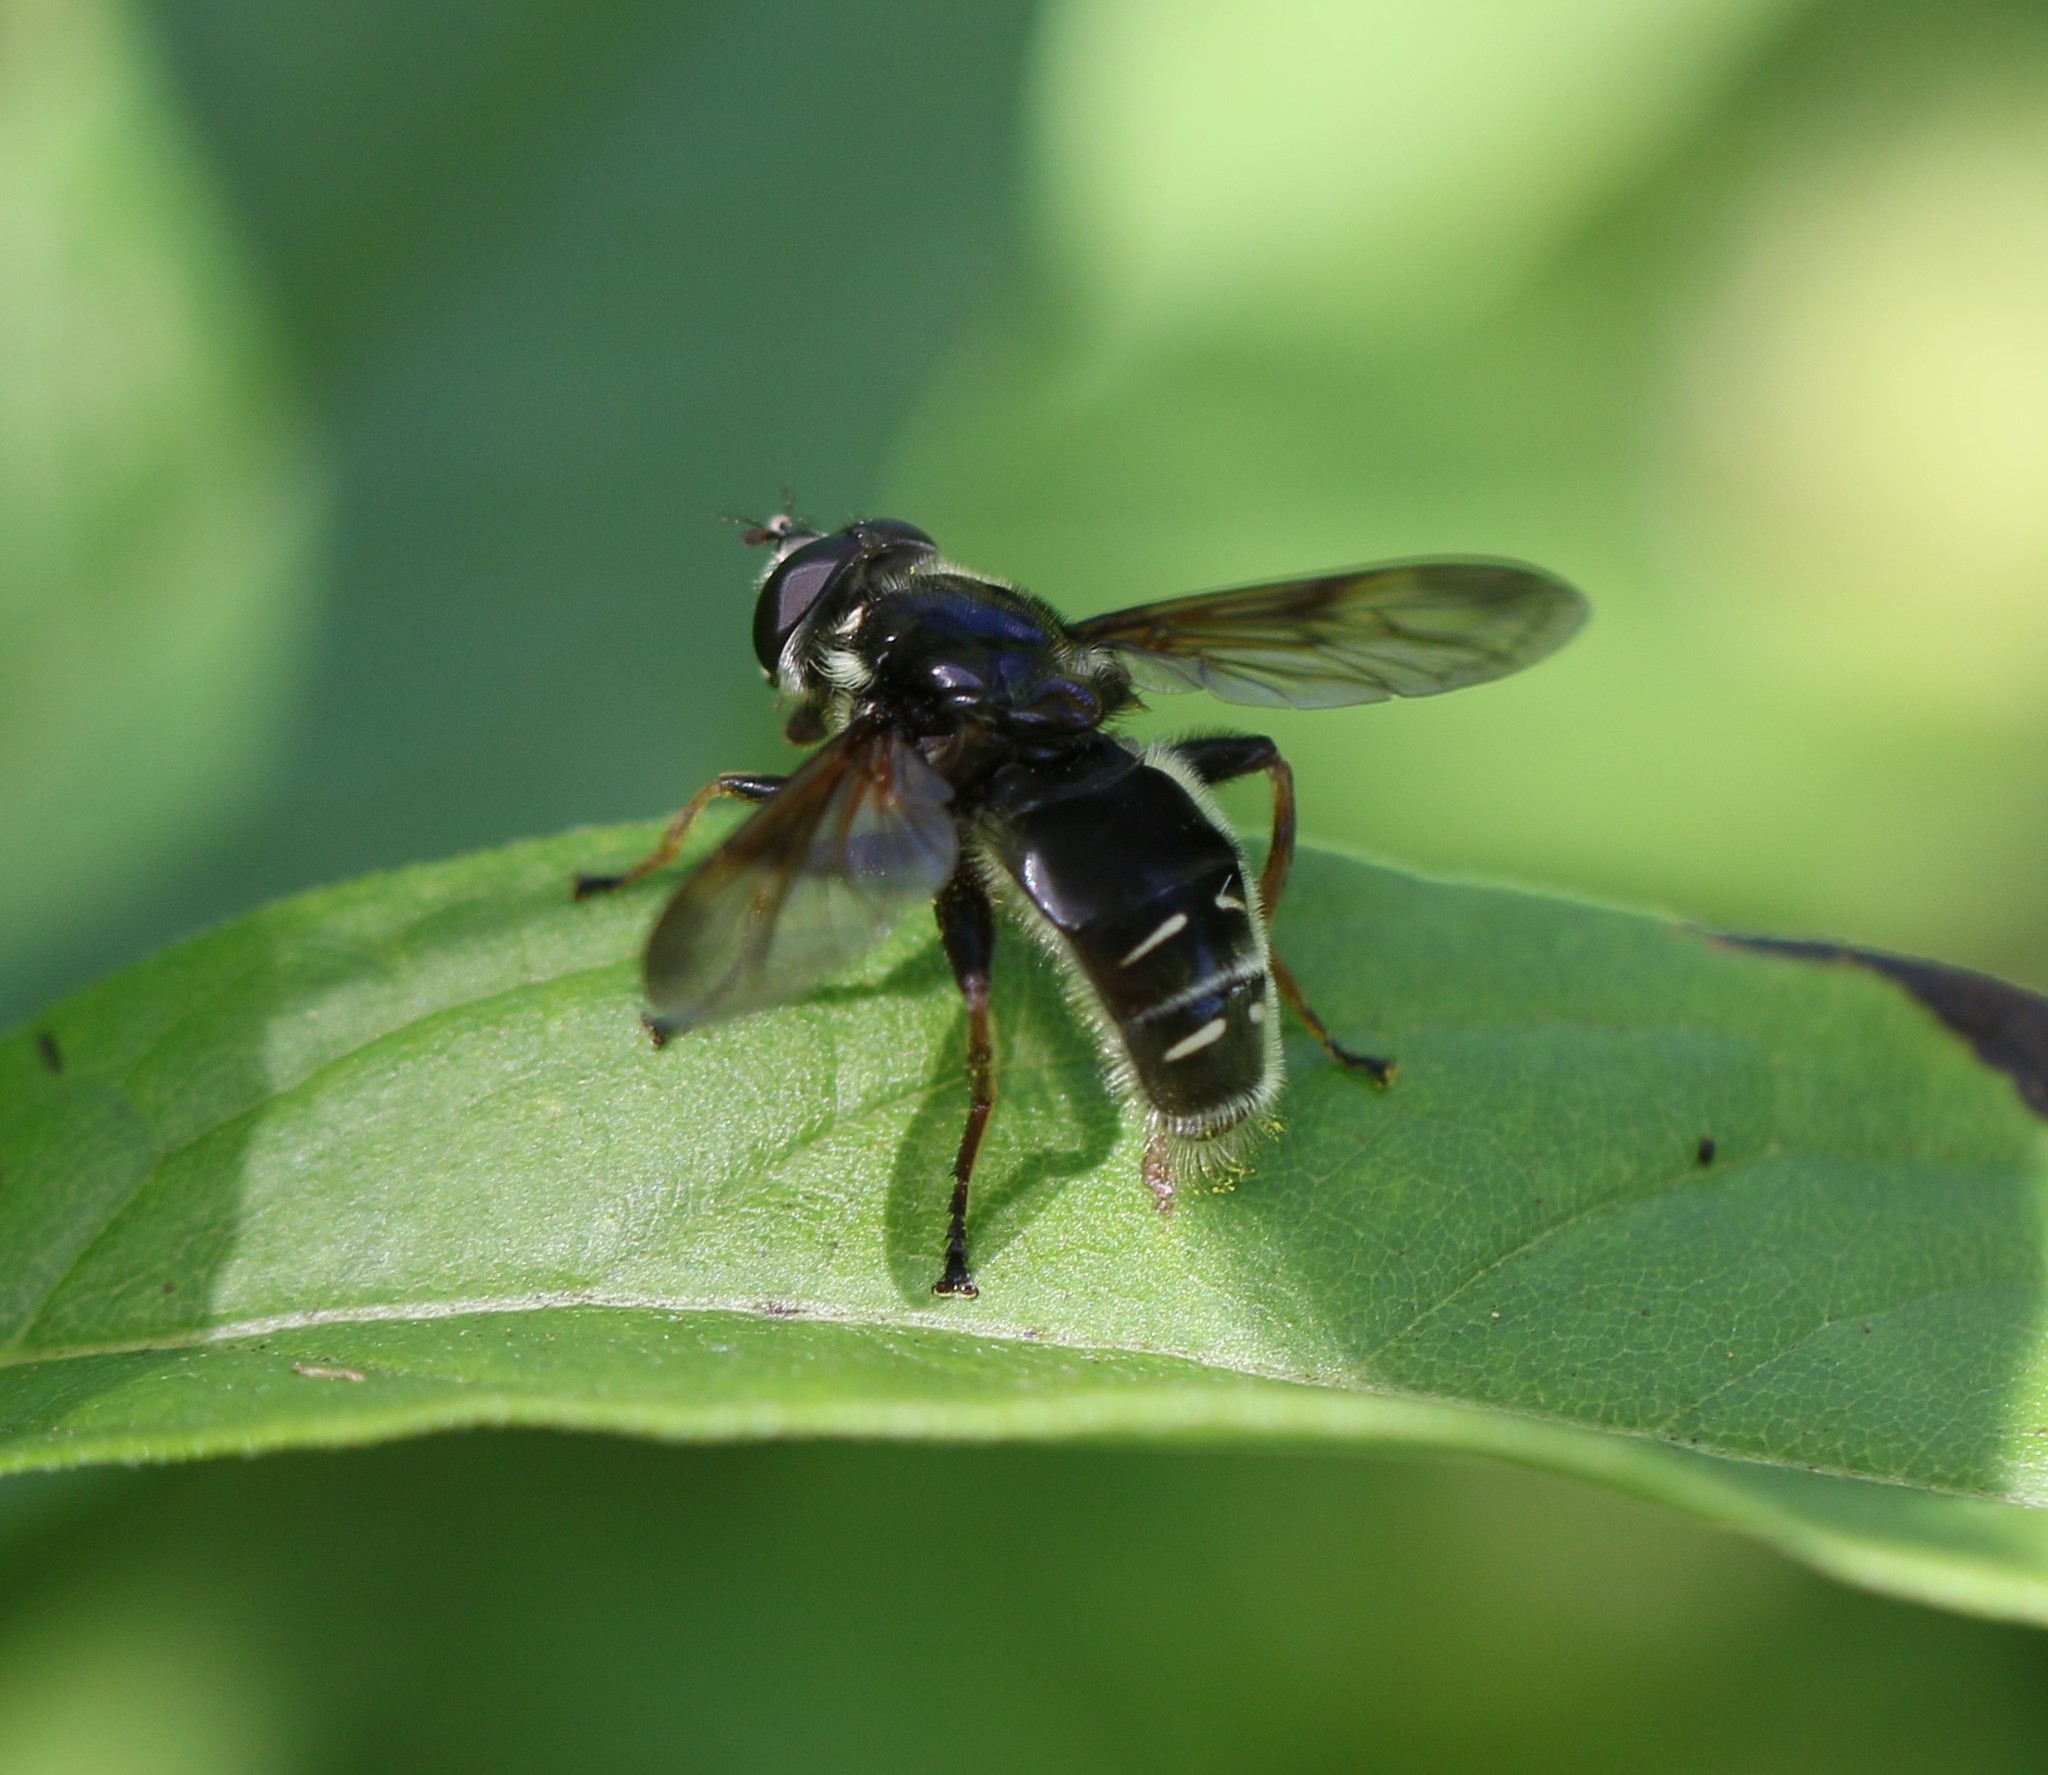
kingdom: Animalia
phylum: Arthropoda
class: Insecta
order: Diptera
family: Syrphidae
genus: Sericomyia
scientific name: Sericomyia militaris
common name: Narrow-banded pond fly
